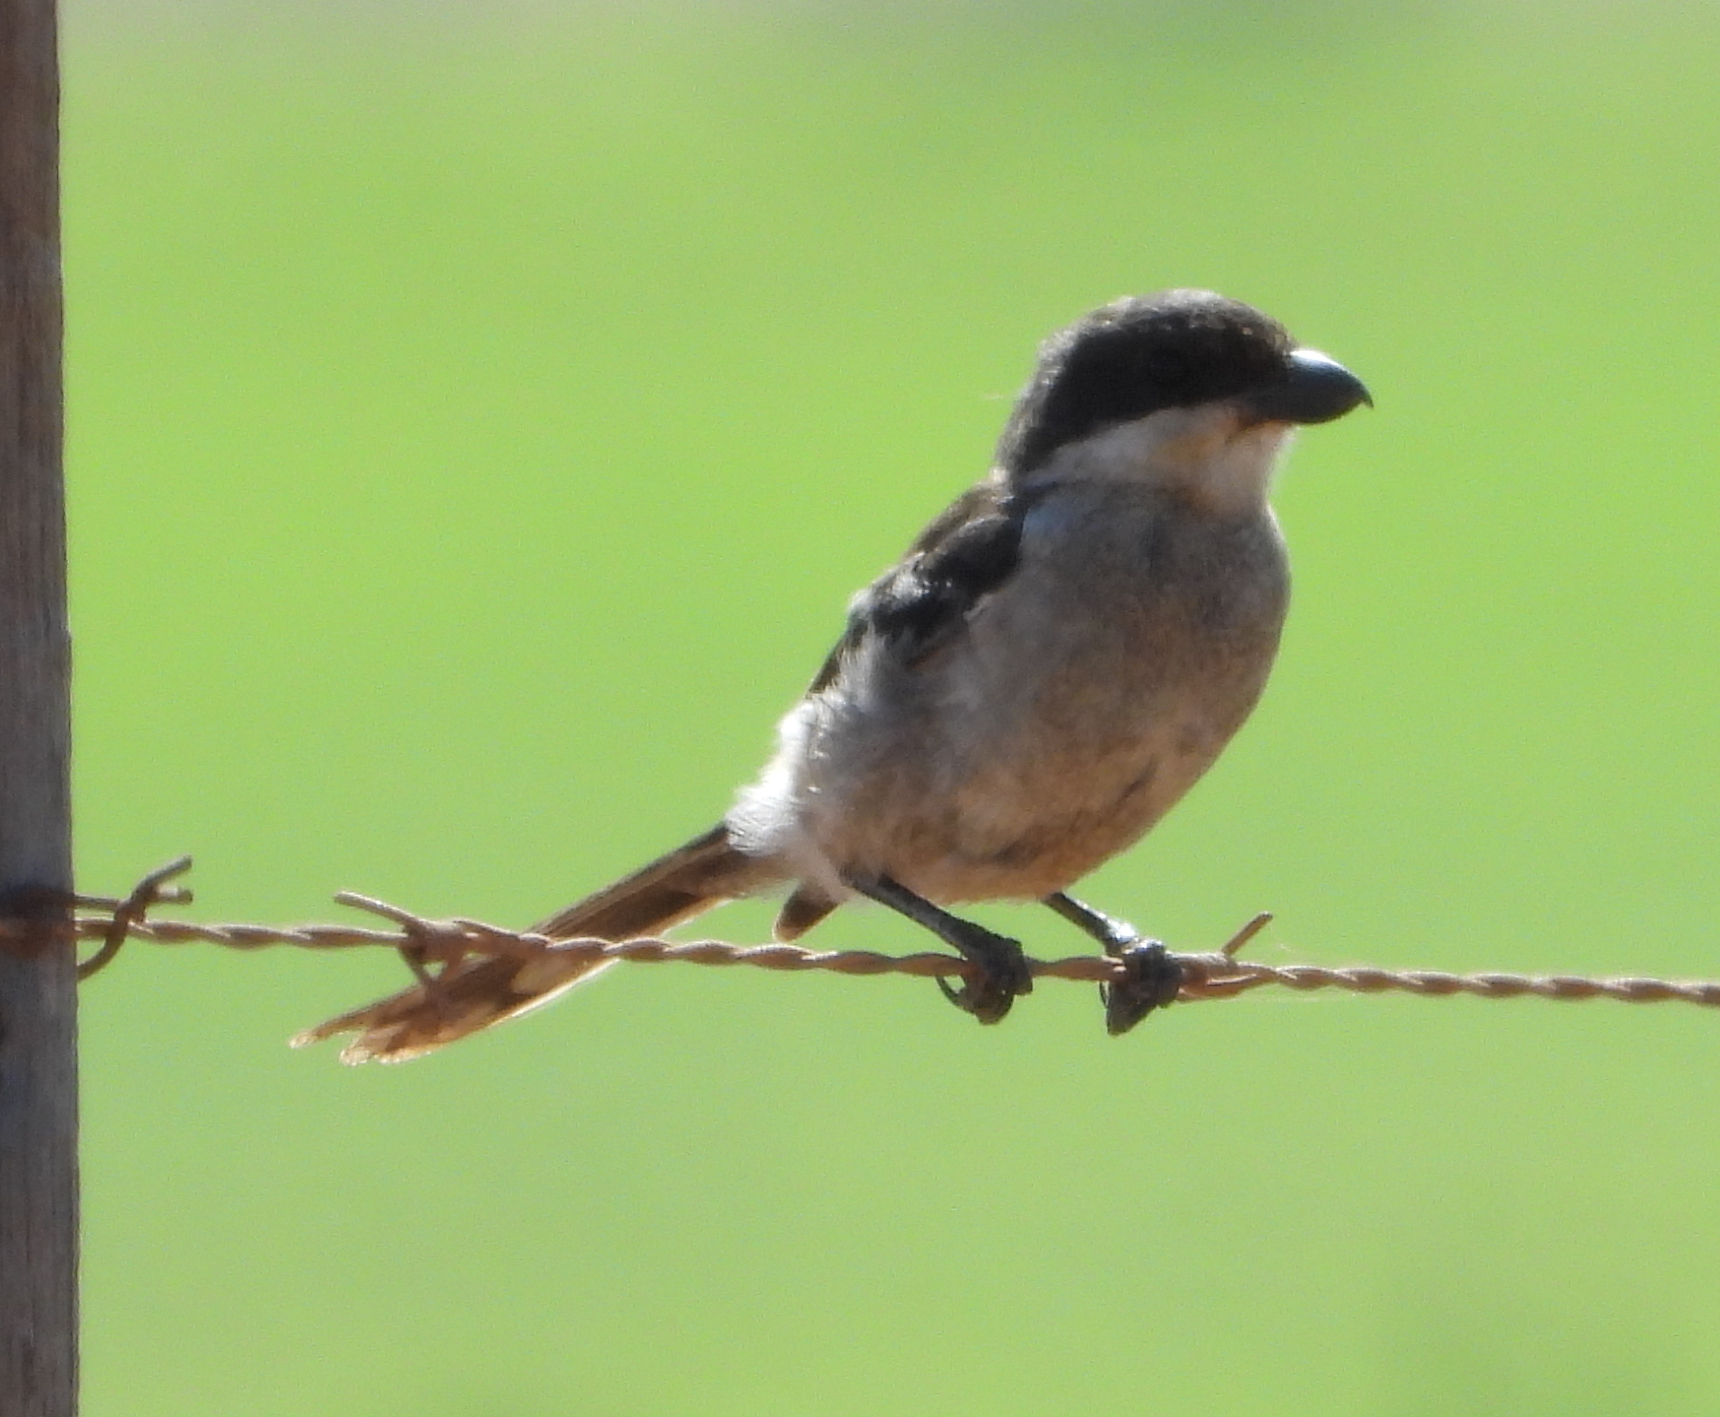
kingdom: Animalia
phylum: Chordata
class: Aves
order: Passeriformes
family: Laniidae
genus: Lanius
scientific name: Lanius collaris
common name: Southern fiscal
